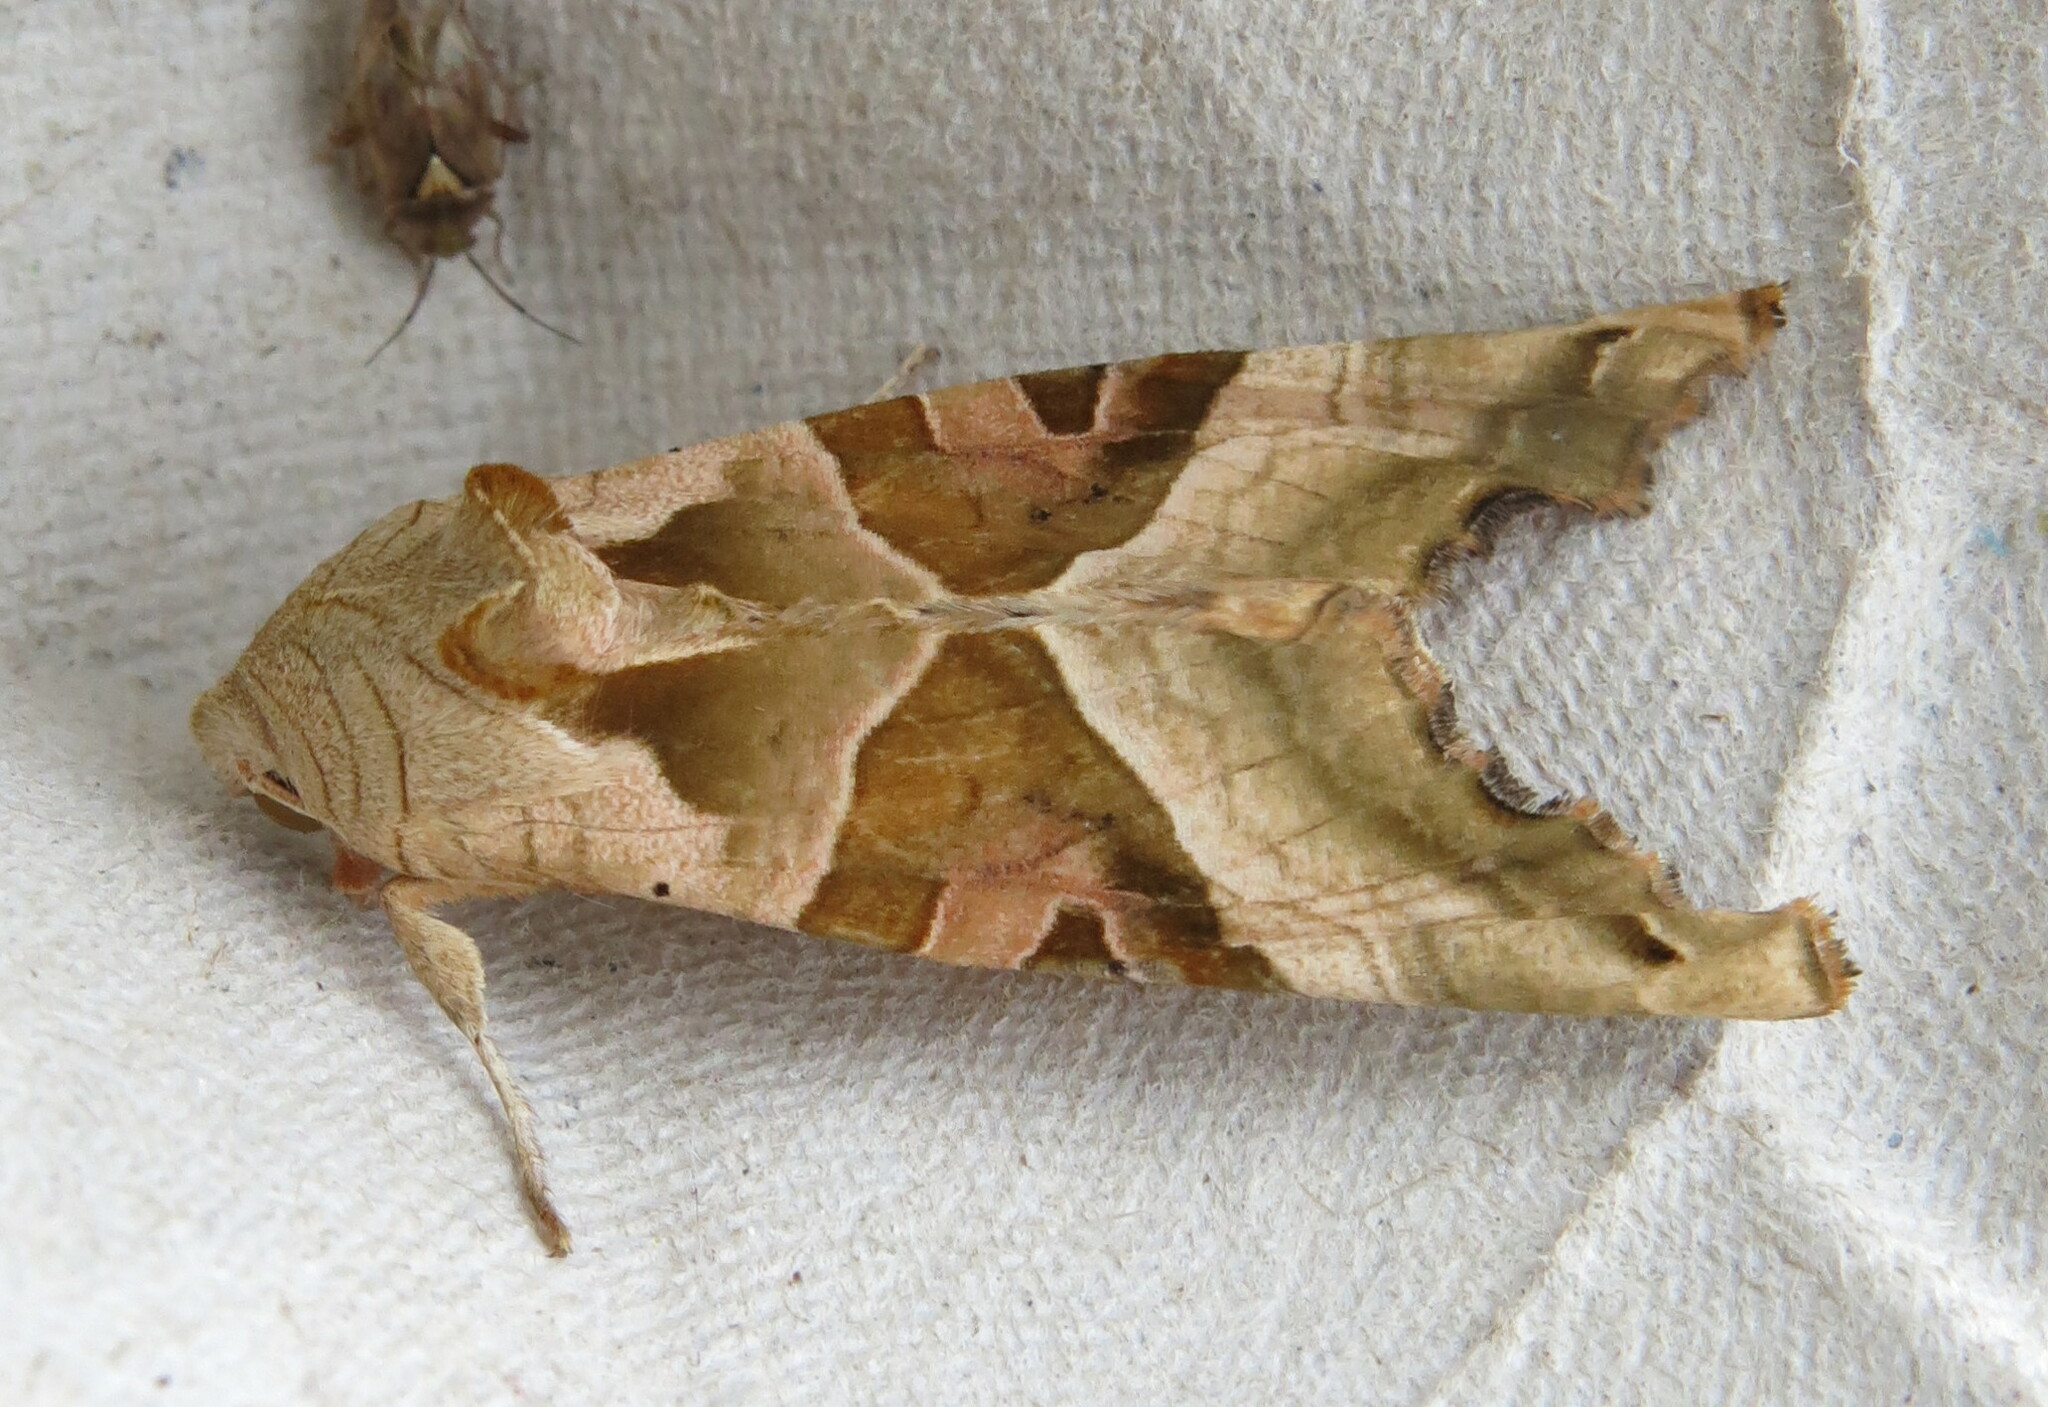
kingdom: Animalia
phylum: Arthropoda
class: Insecta
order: Lepidoptera
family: Noctuidae
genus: Phlogophora
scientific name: Phlogophora meticulosa
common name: Angle shades
